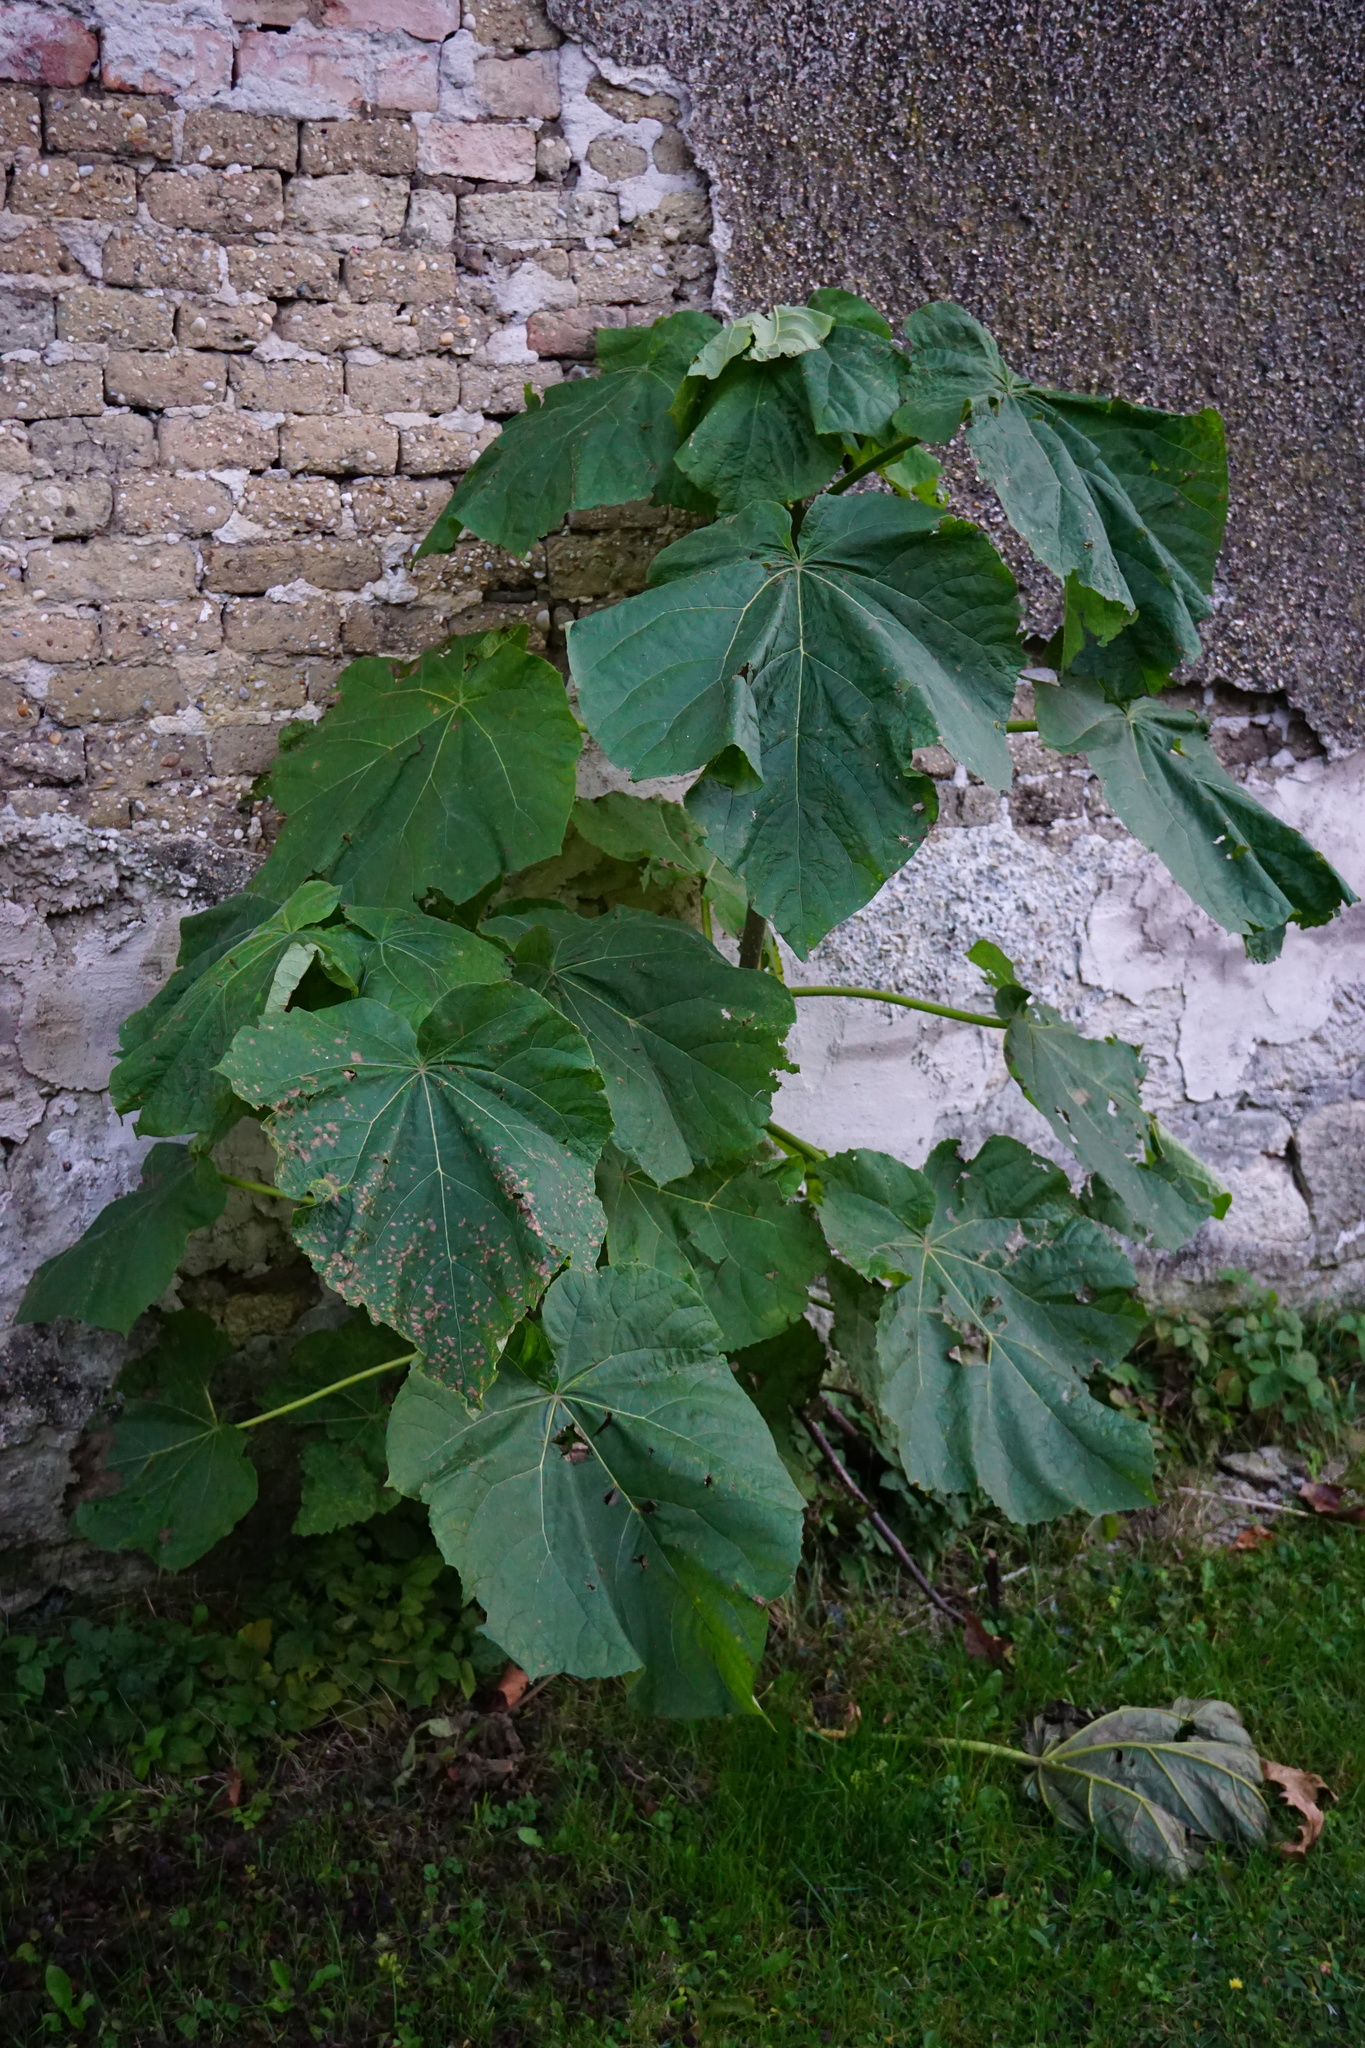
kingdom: Plantae
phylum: Tracheophyta
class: Magnoliopsida
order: Lamiales
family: Paulowniaceae
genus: Paulownia
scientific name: Paulownia tomentosa
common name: Foxglove-tree
